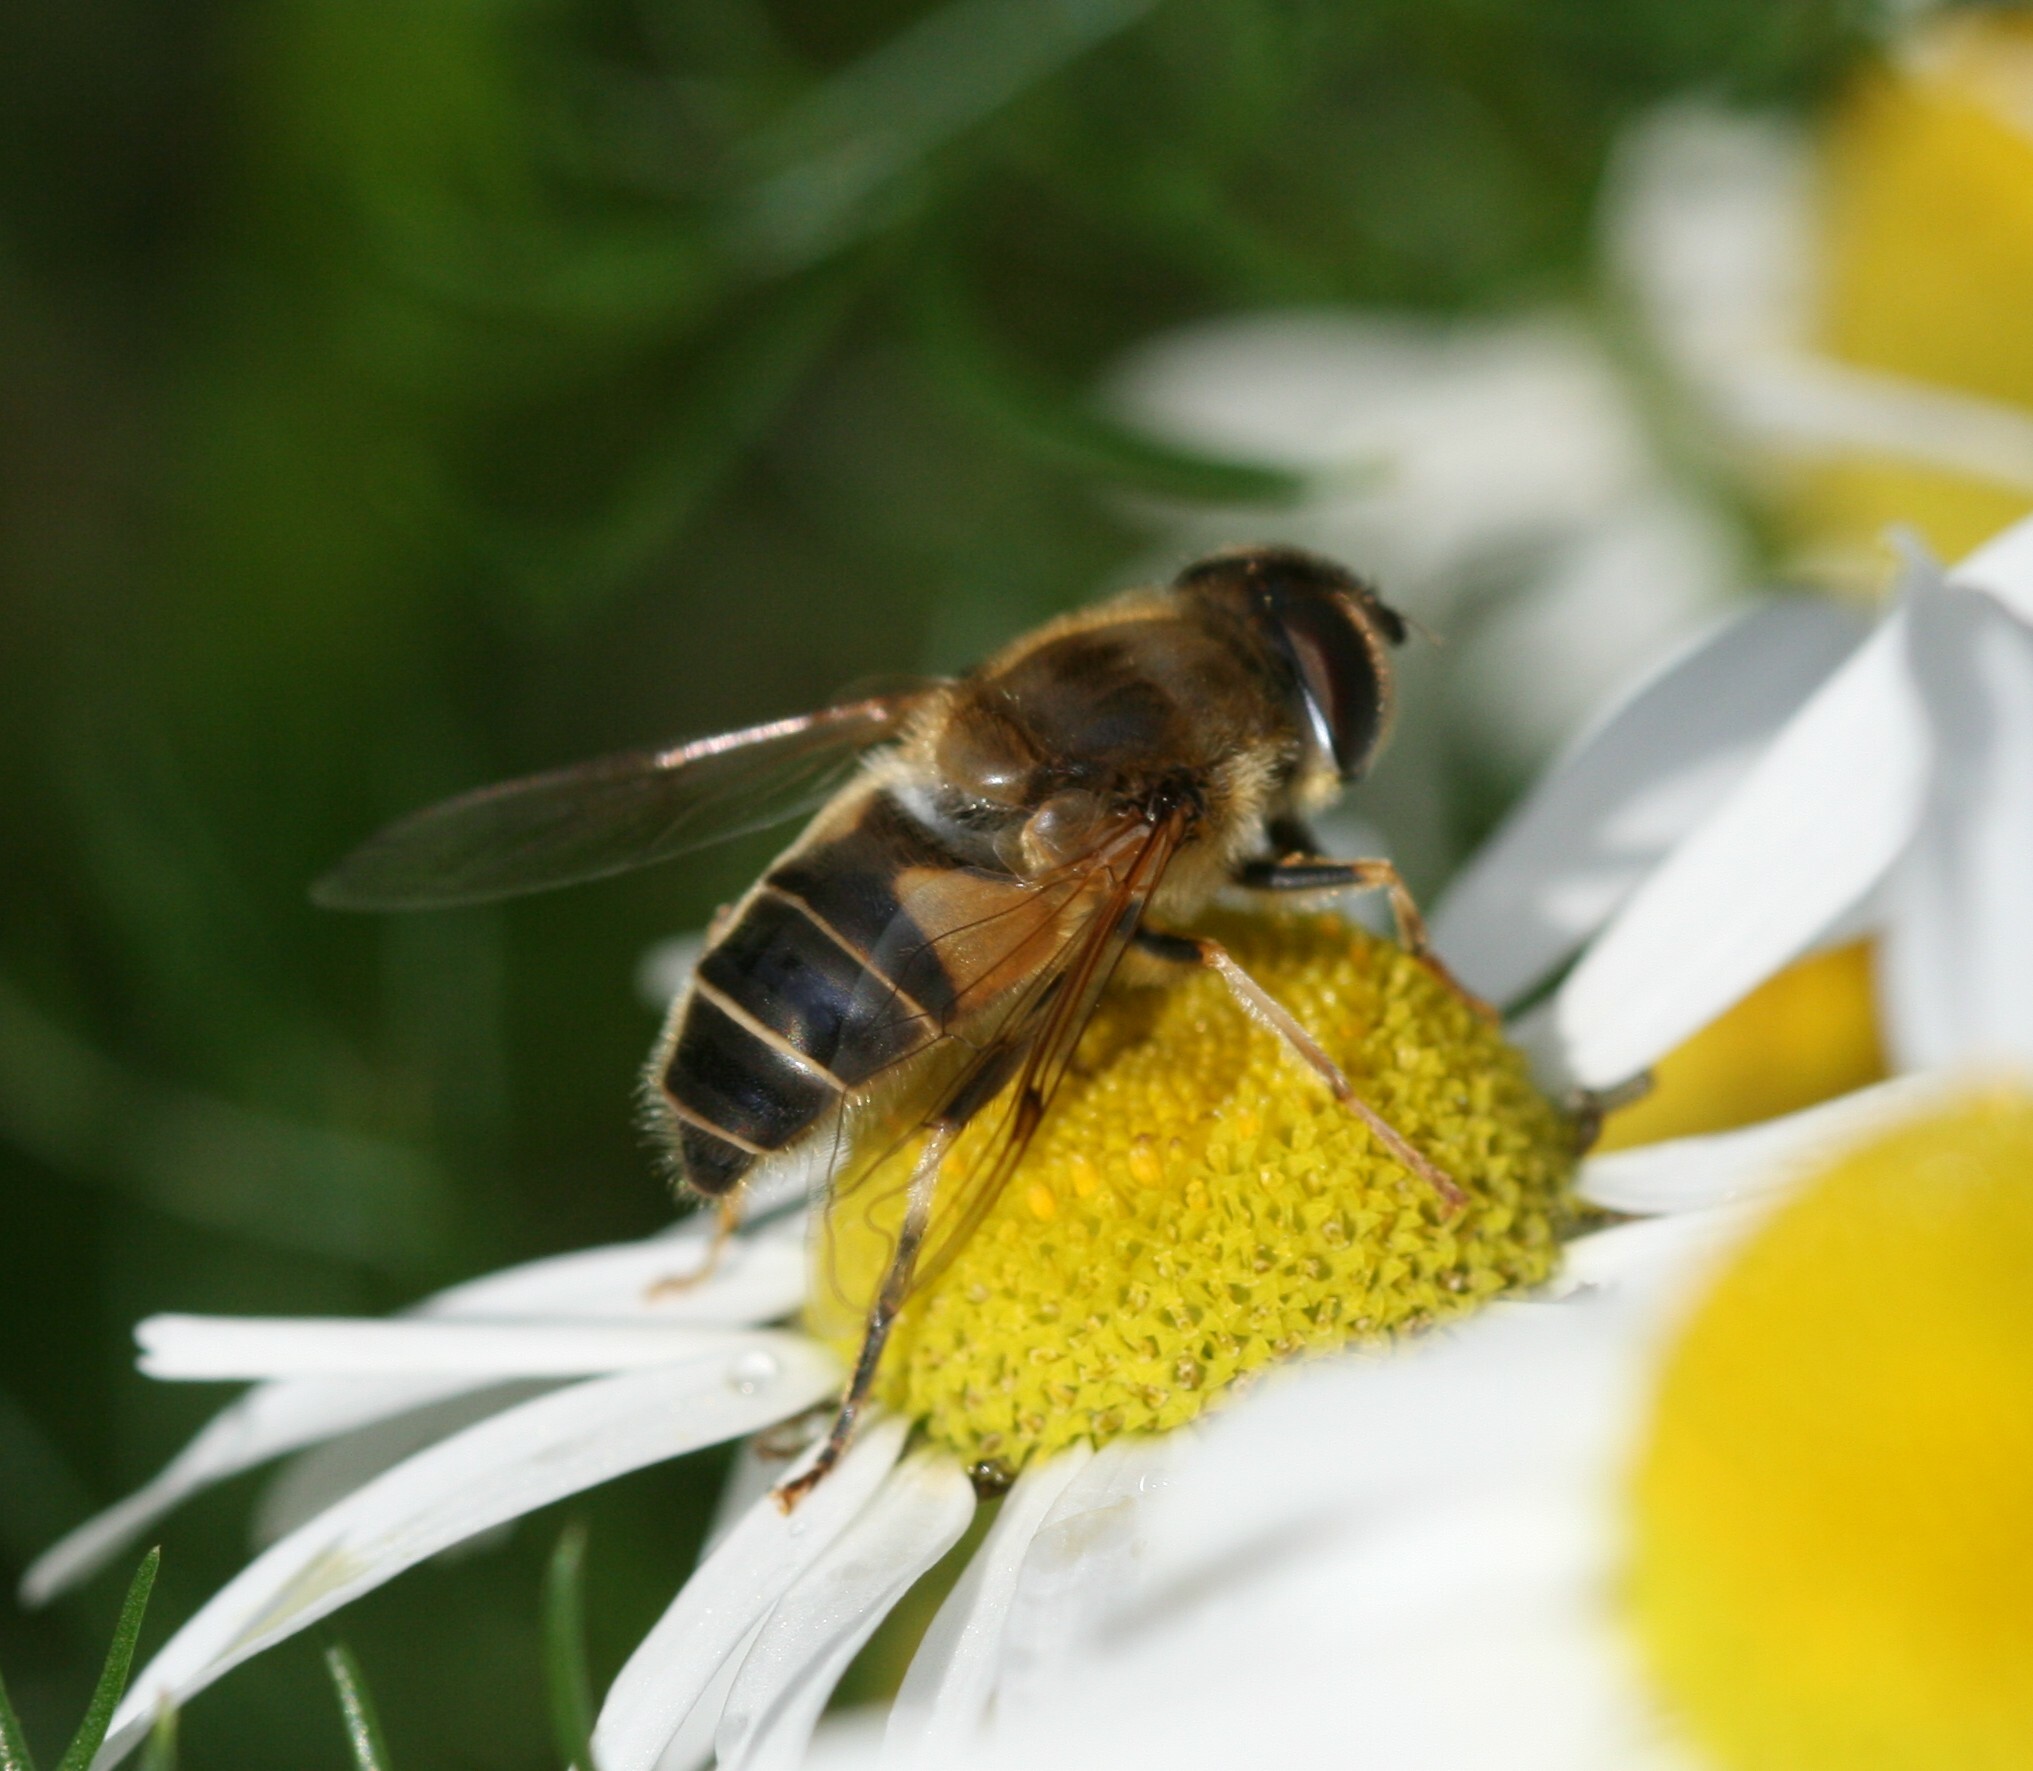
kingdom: Animalia
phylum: Arthropoda
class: Insecta
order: Diptera
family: Syrphidae
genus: Eristalis
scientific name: Eristalis pertinax
